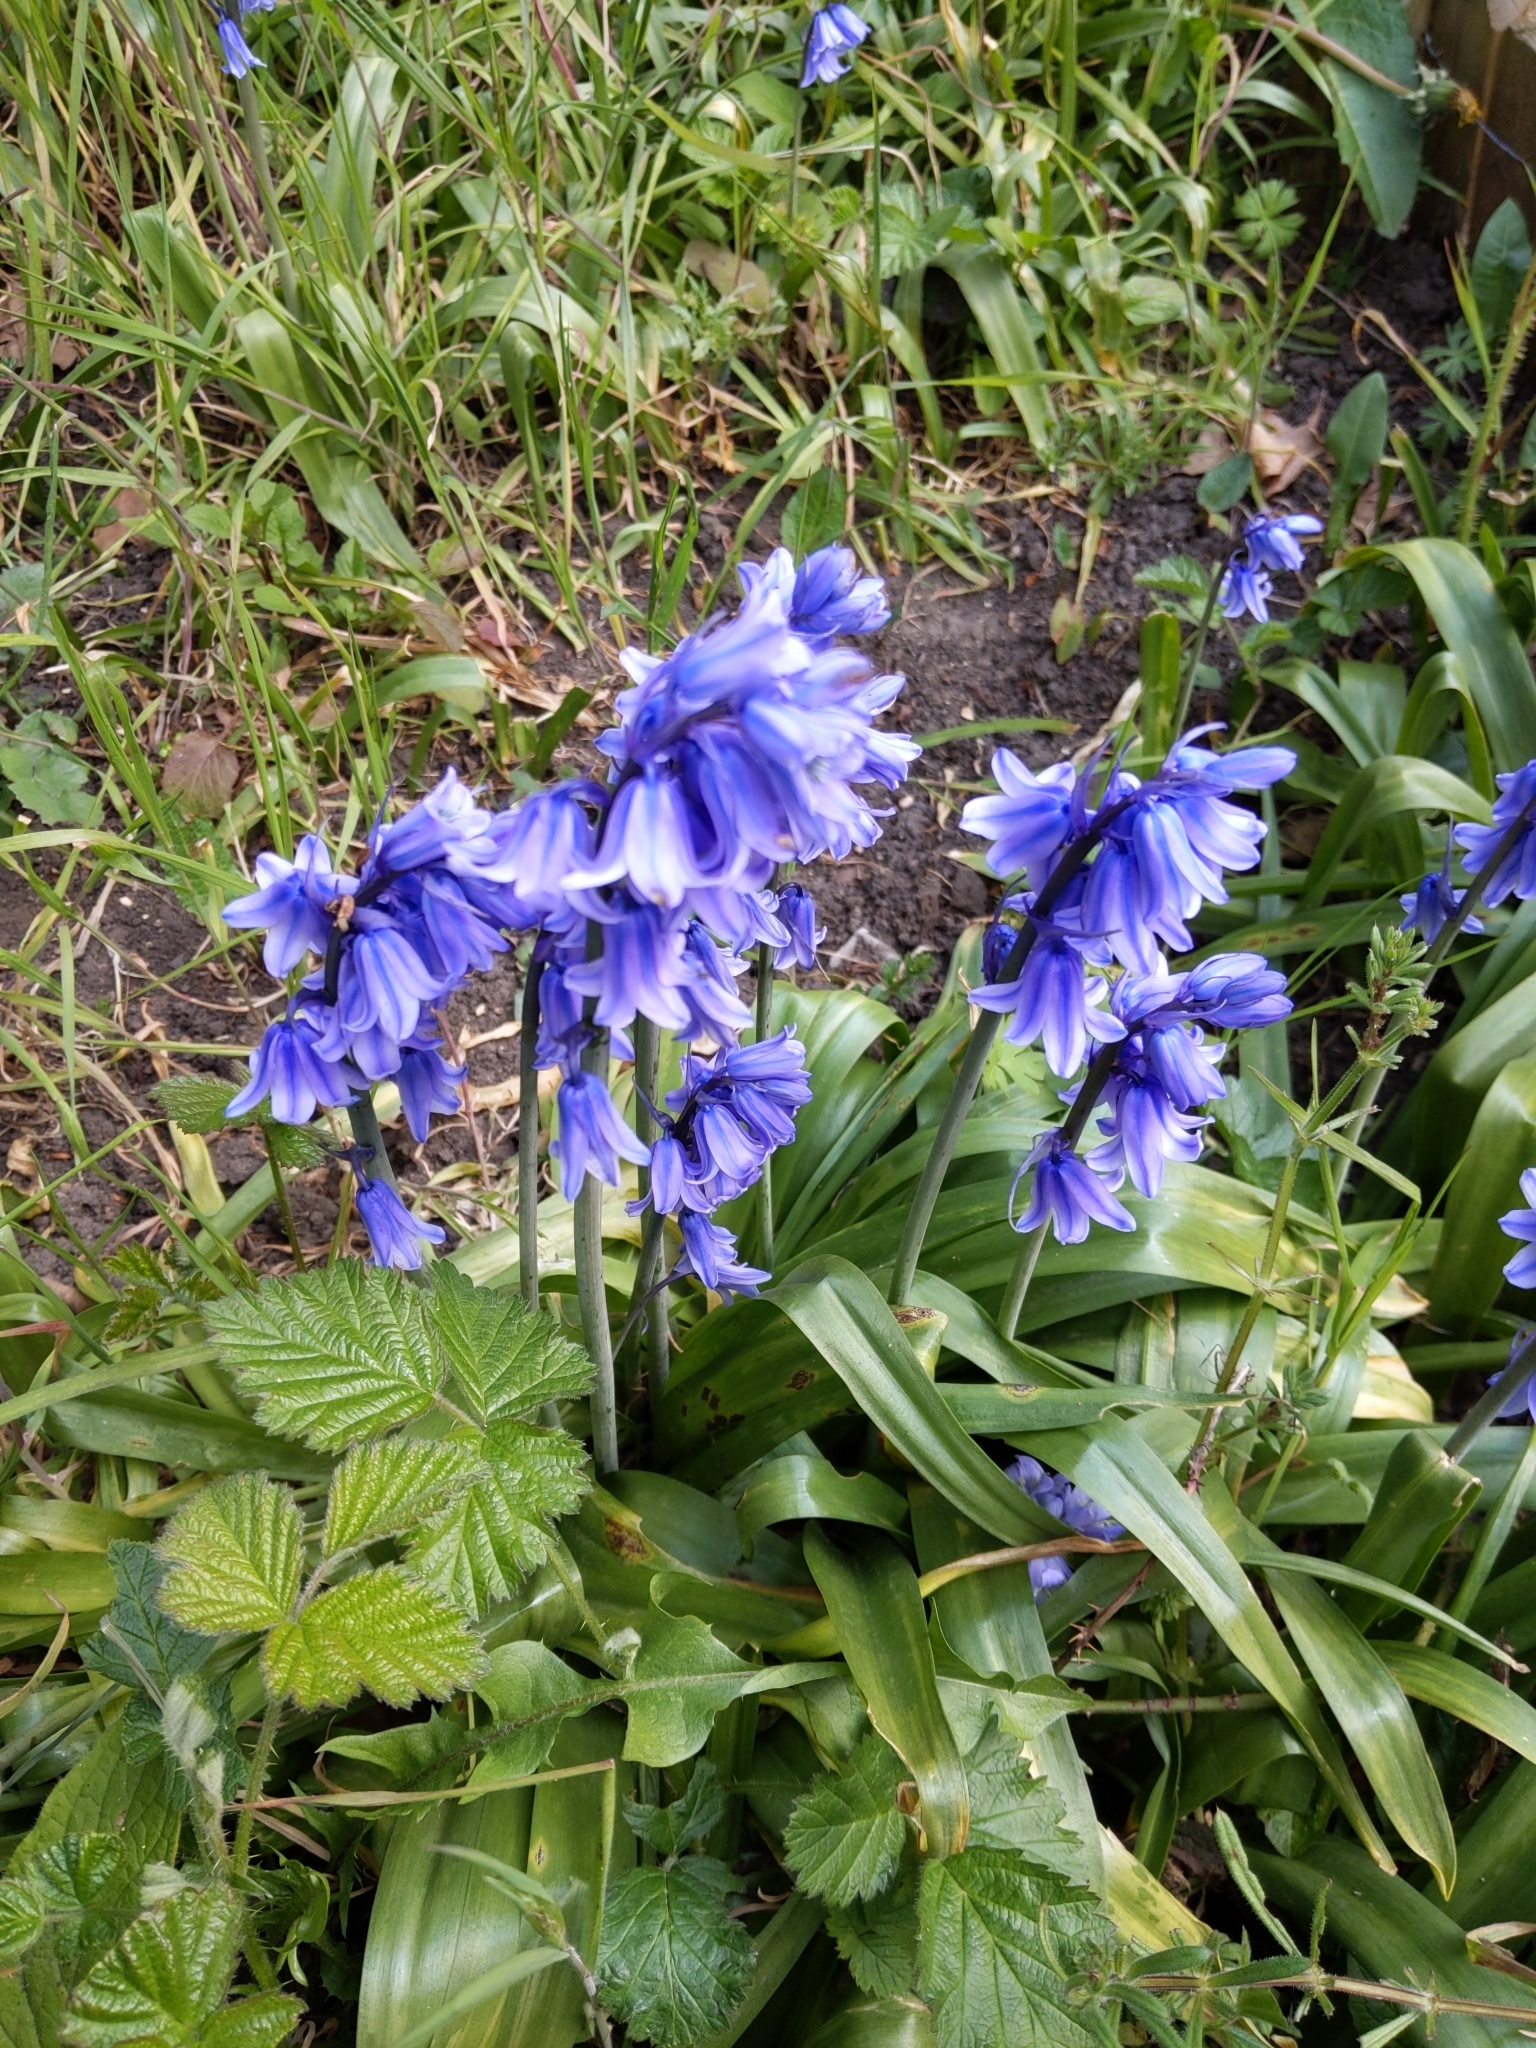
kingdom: Plantae
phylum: Tracheophyta
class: Liliopsida
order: Asparagales
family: Asparagaceae
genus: Hyacinthoides
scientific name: Hyacinthoides massartiana
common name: Hyacinthoides
